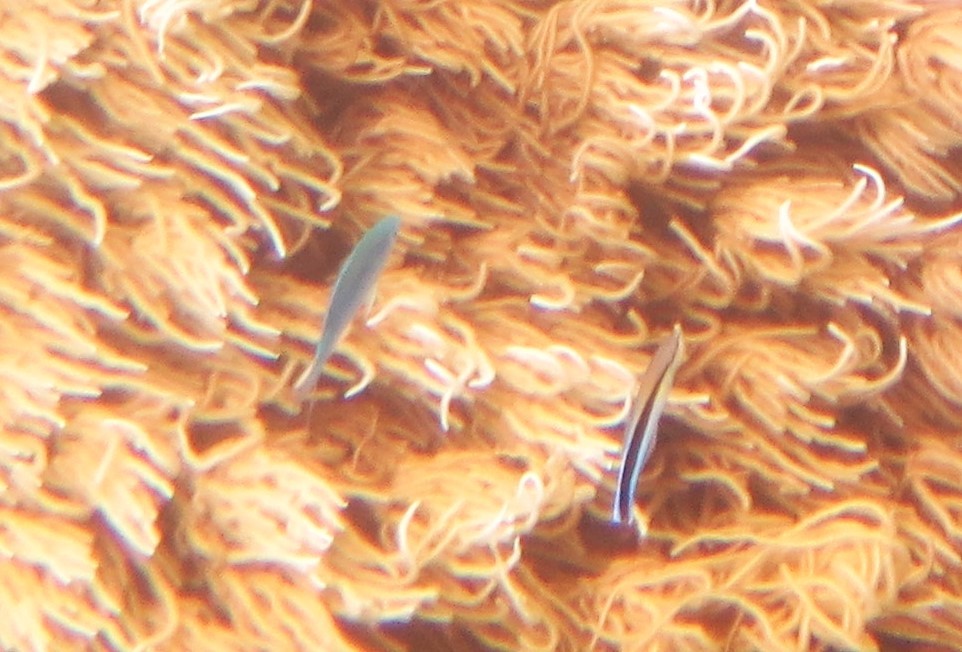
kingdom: Animalia
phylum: Chordata
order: Perciformes
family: Labridae
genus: Labroides
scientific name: Labroides dimidiatus
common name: Blue diesel wrasse
